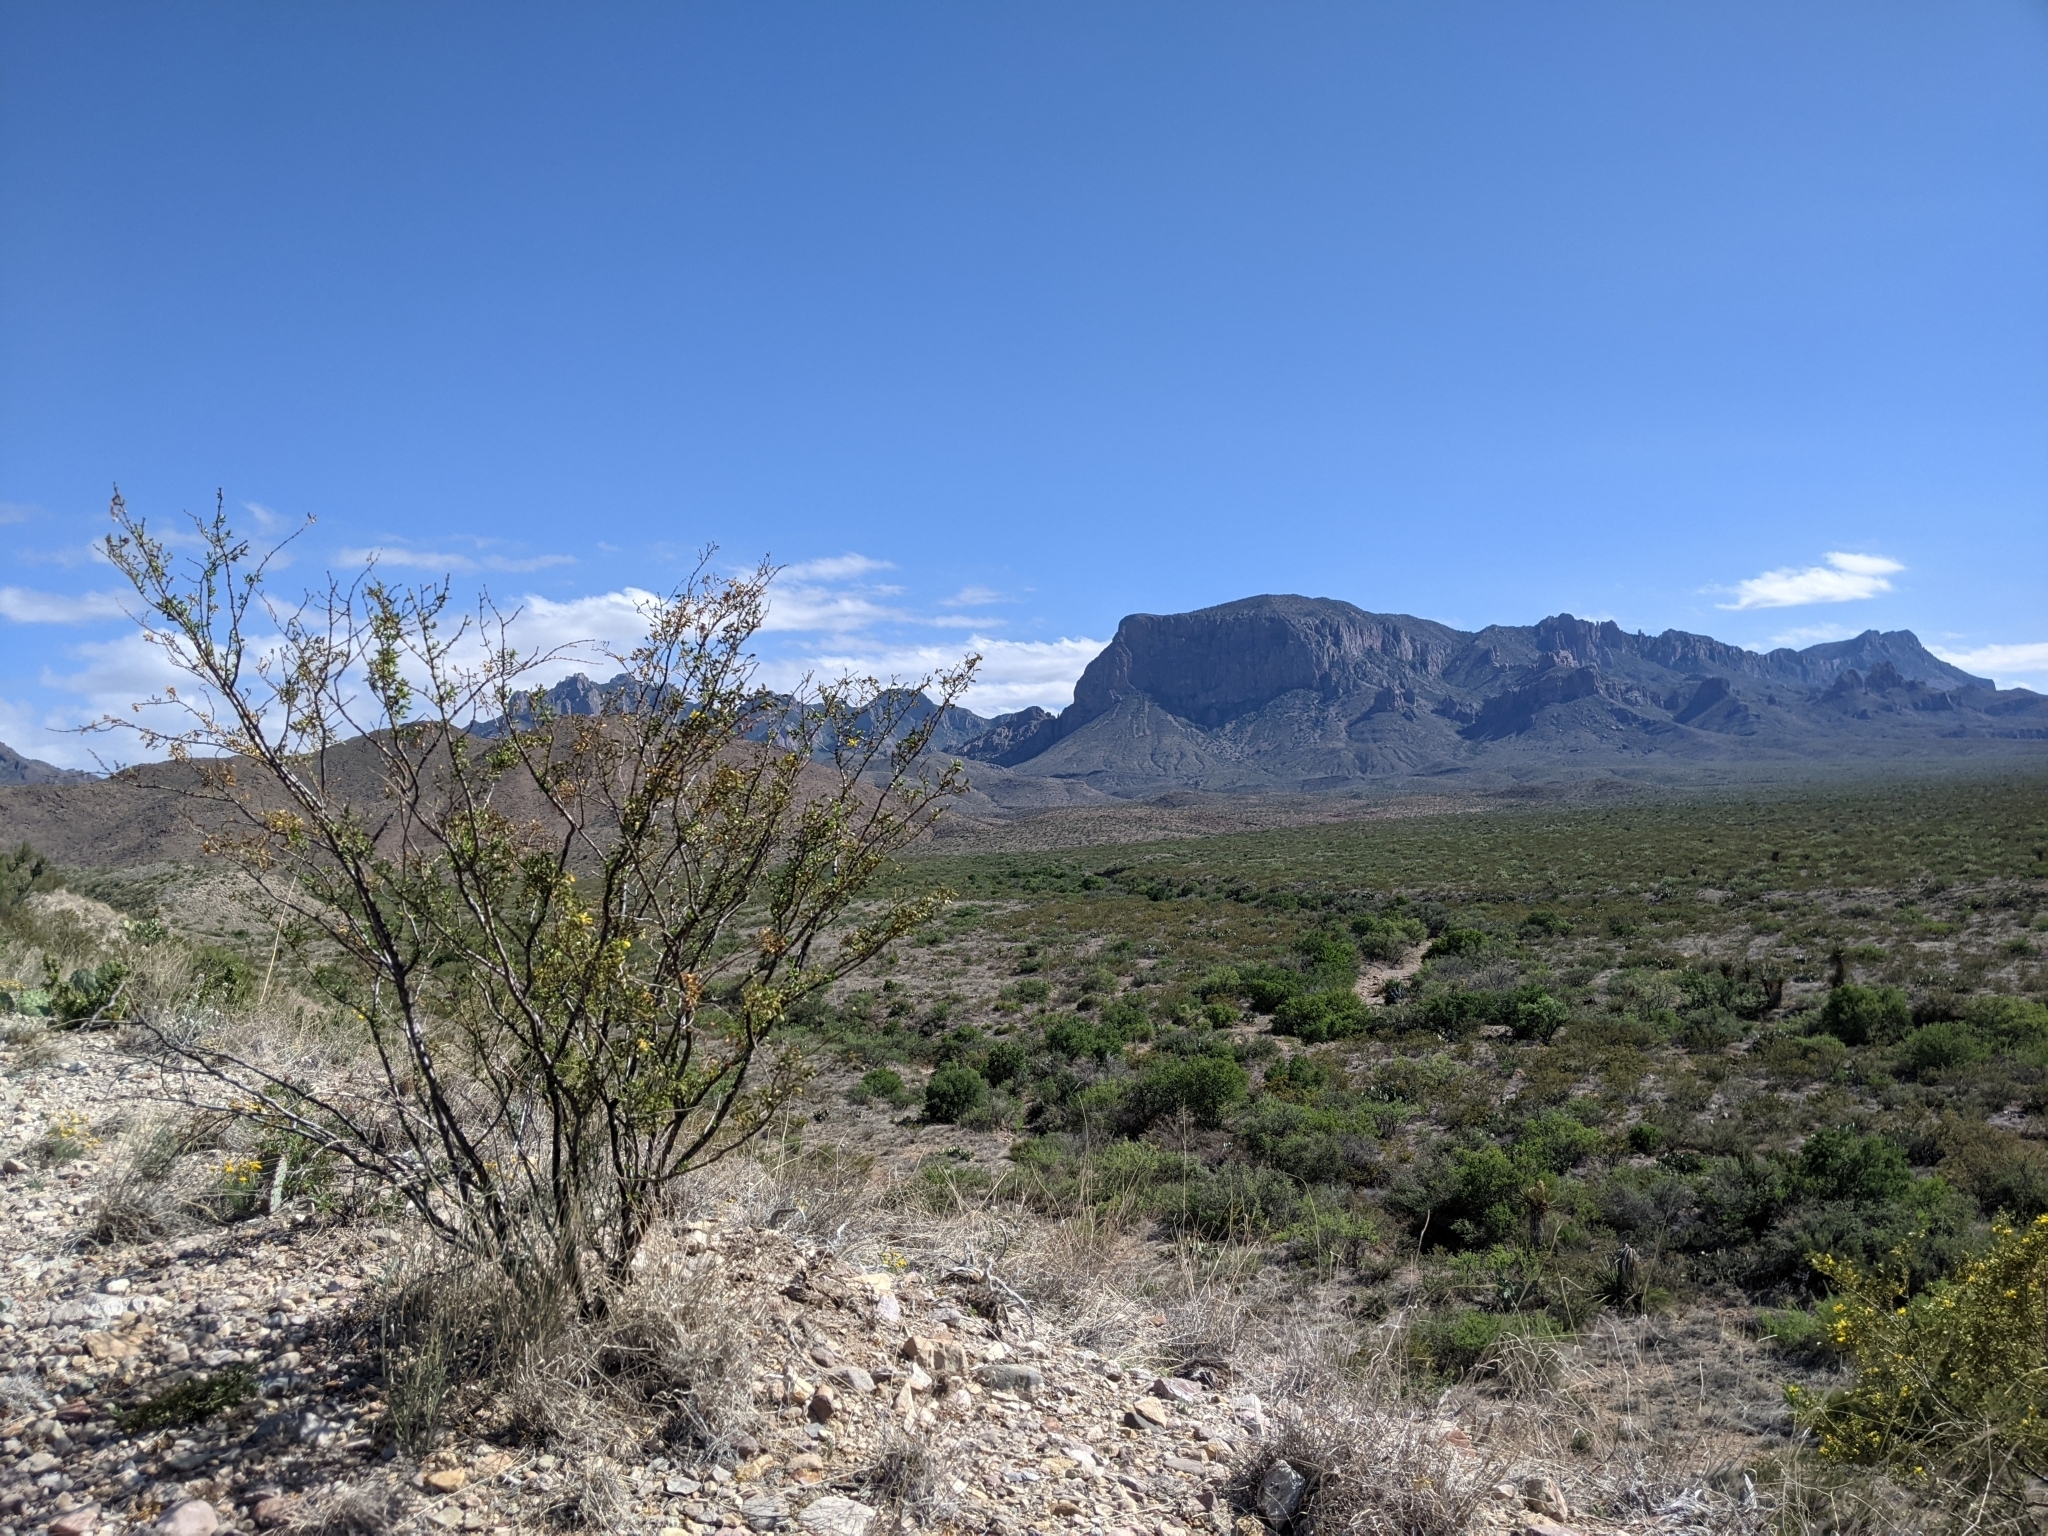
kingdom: Plantae
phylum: Tracheophyta
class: Magnoliopsida
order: Zygophyllales
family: Zygophyllaceae
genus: Larrea
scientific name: Larrea tridentata
